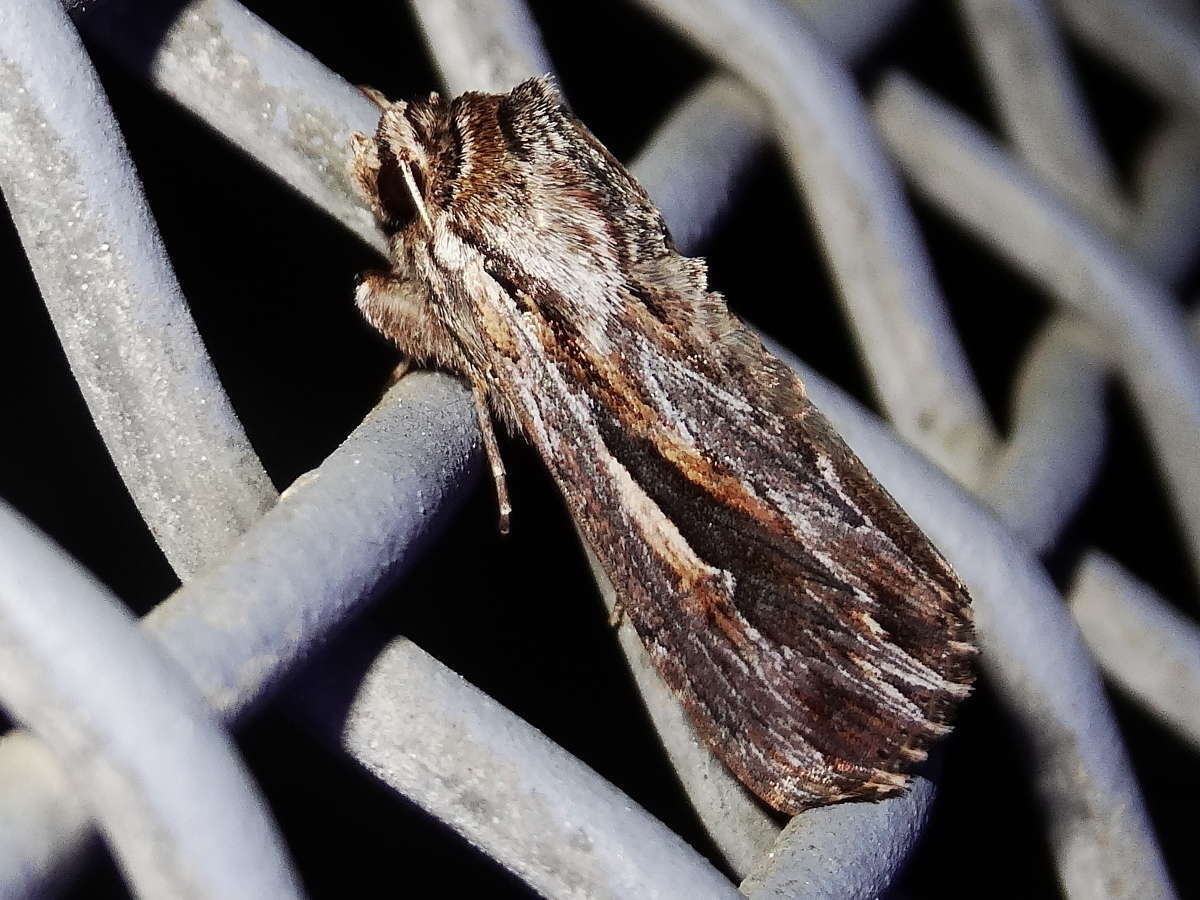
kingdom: Animalia
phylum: Arthropoda
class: Insecta
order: Lepidoptera
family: Noctuidae
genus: Persectania
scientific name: Persectania ewingii
